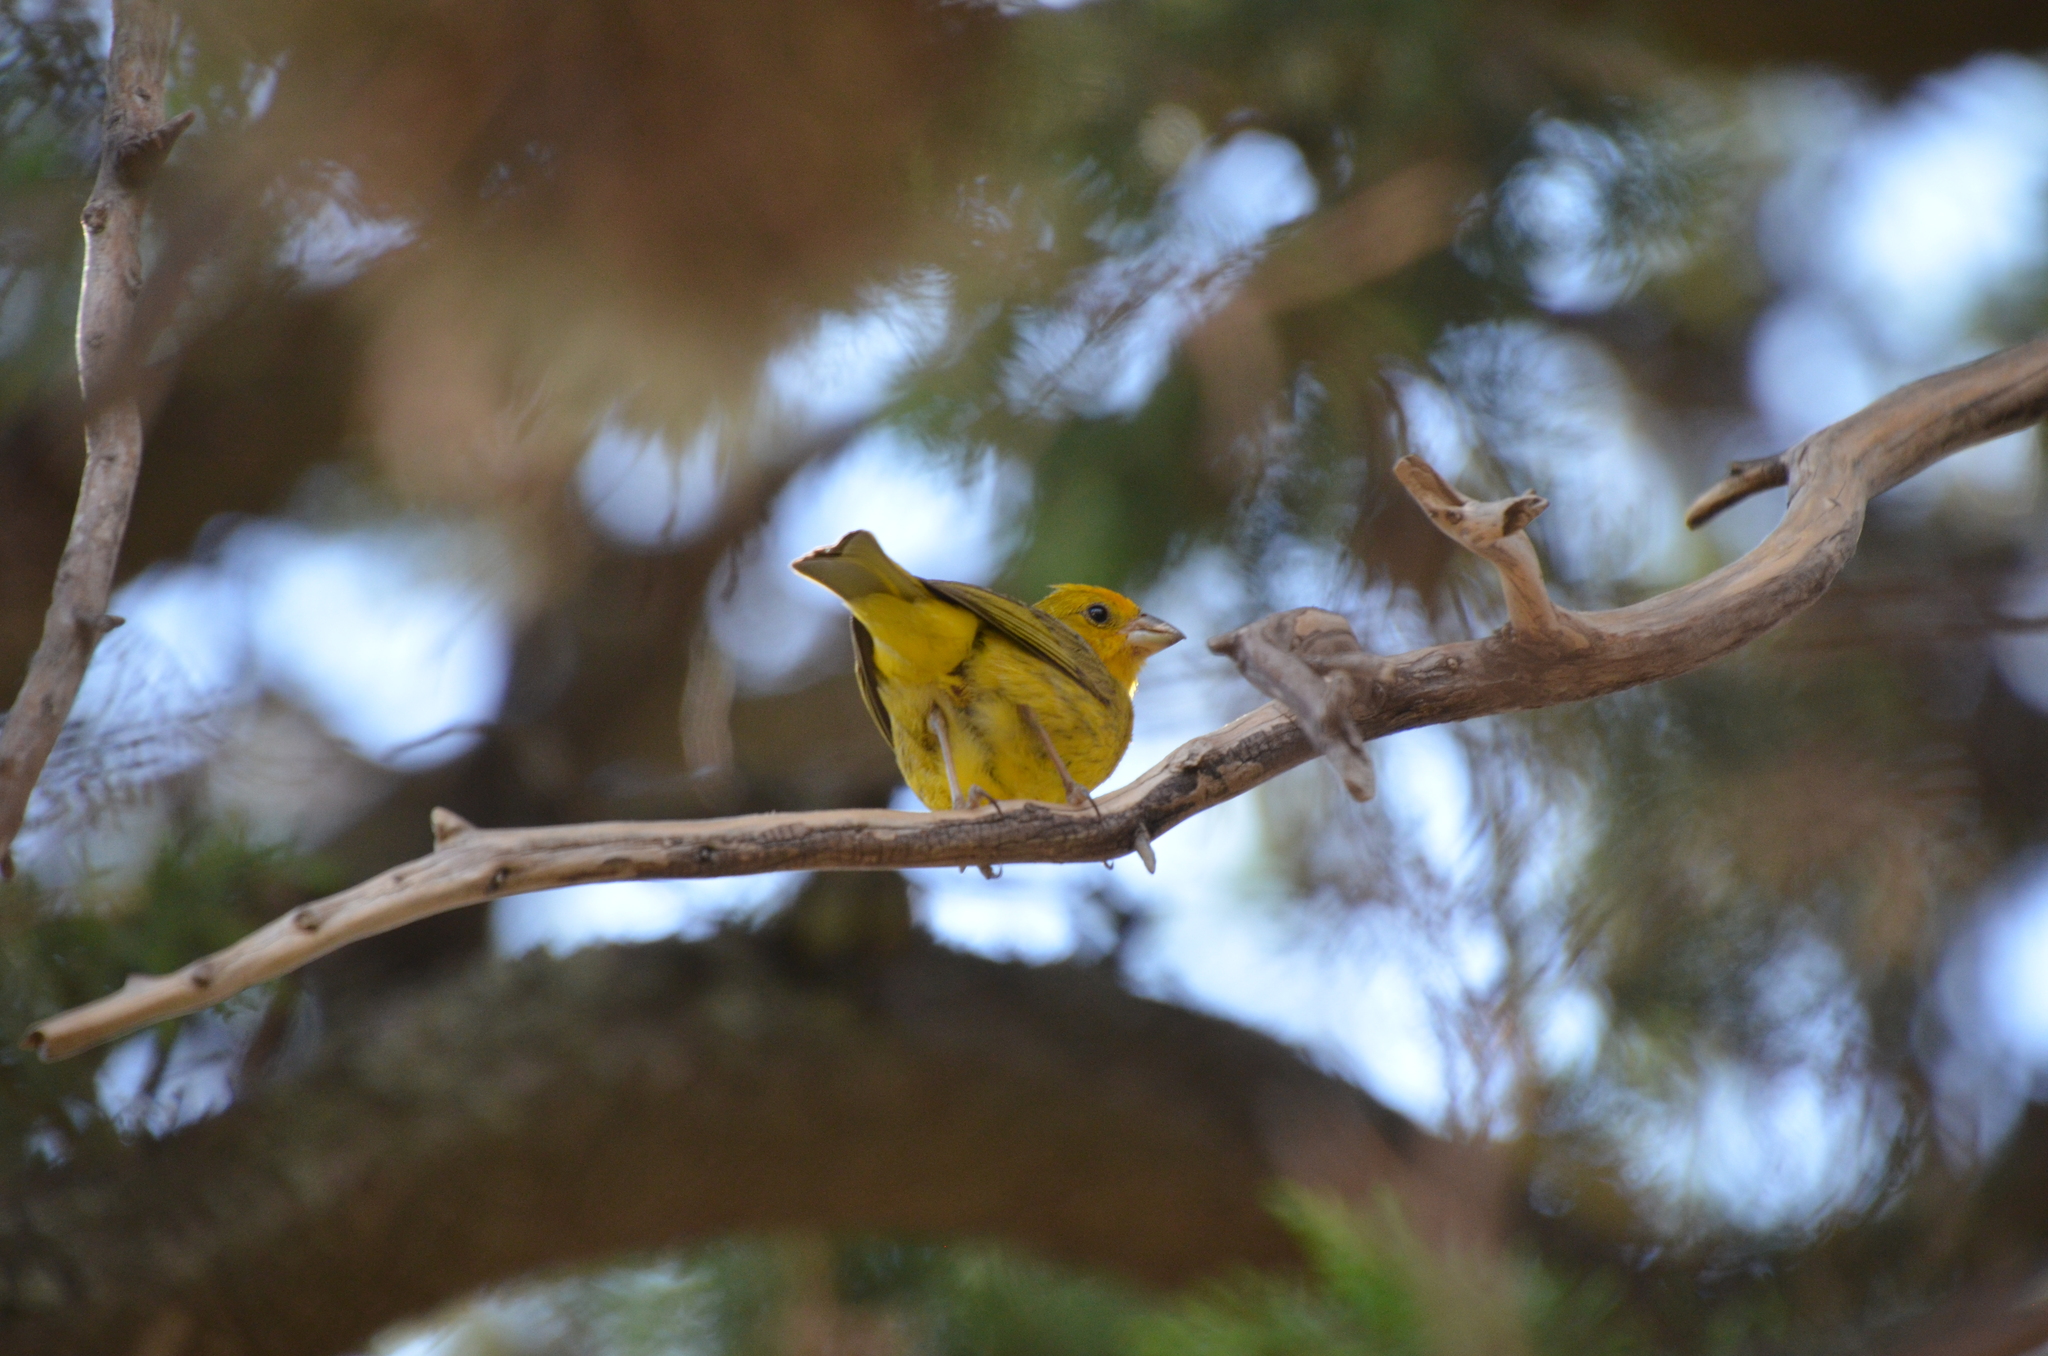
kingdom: Animalia
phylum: Chordata
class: Aves
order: Passeriformes
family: Thraupidae
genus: Sicalis
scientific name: Sicalis flaveola
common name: Saffron finch
